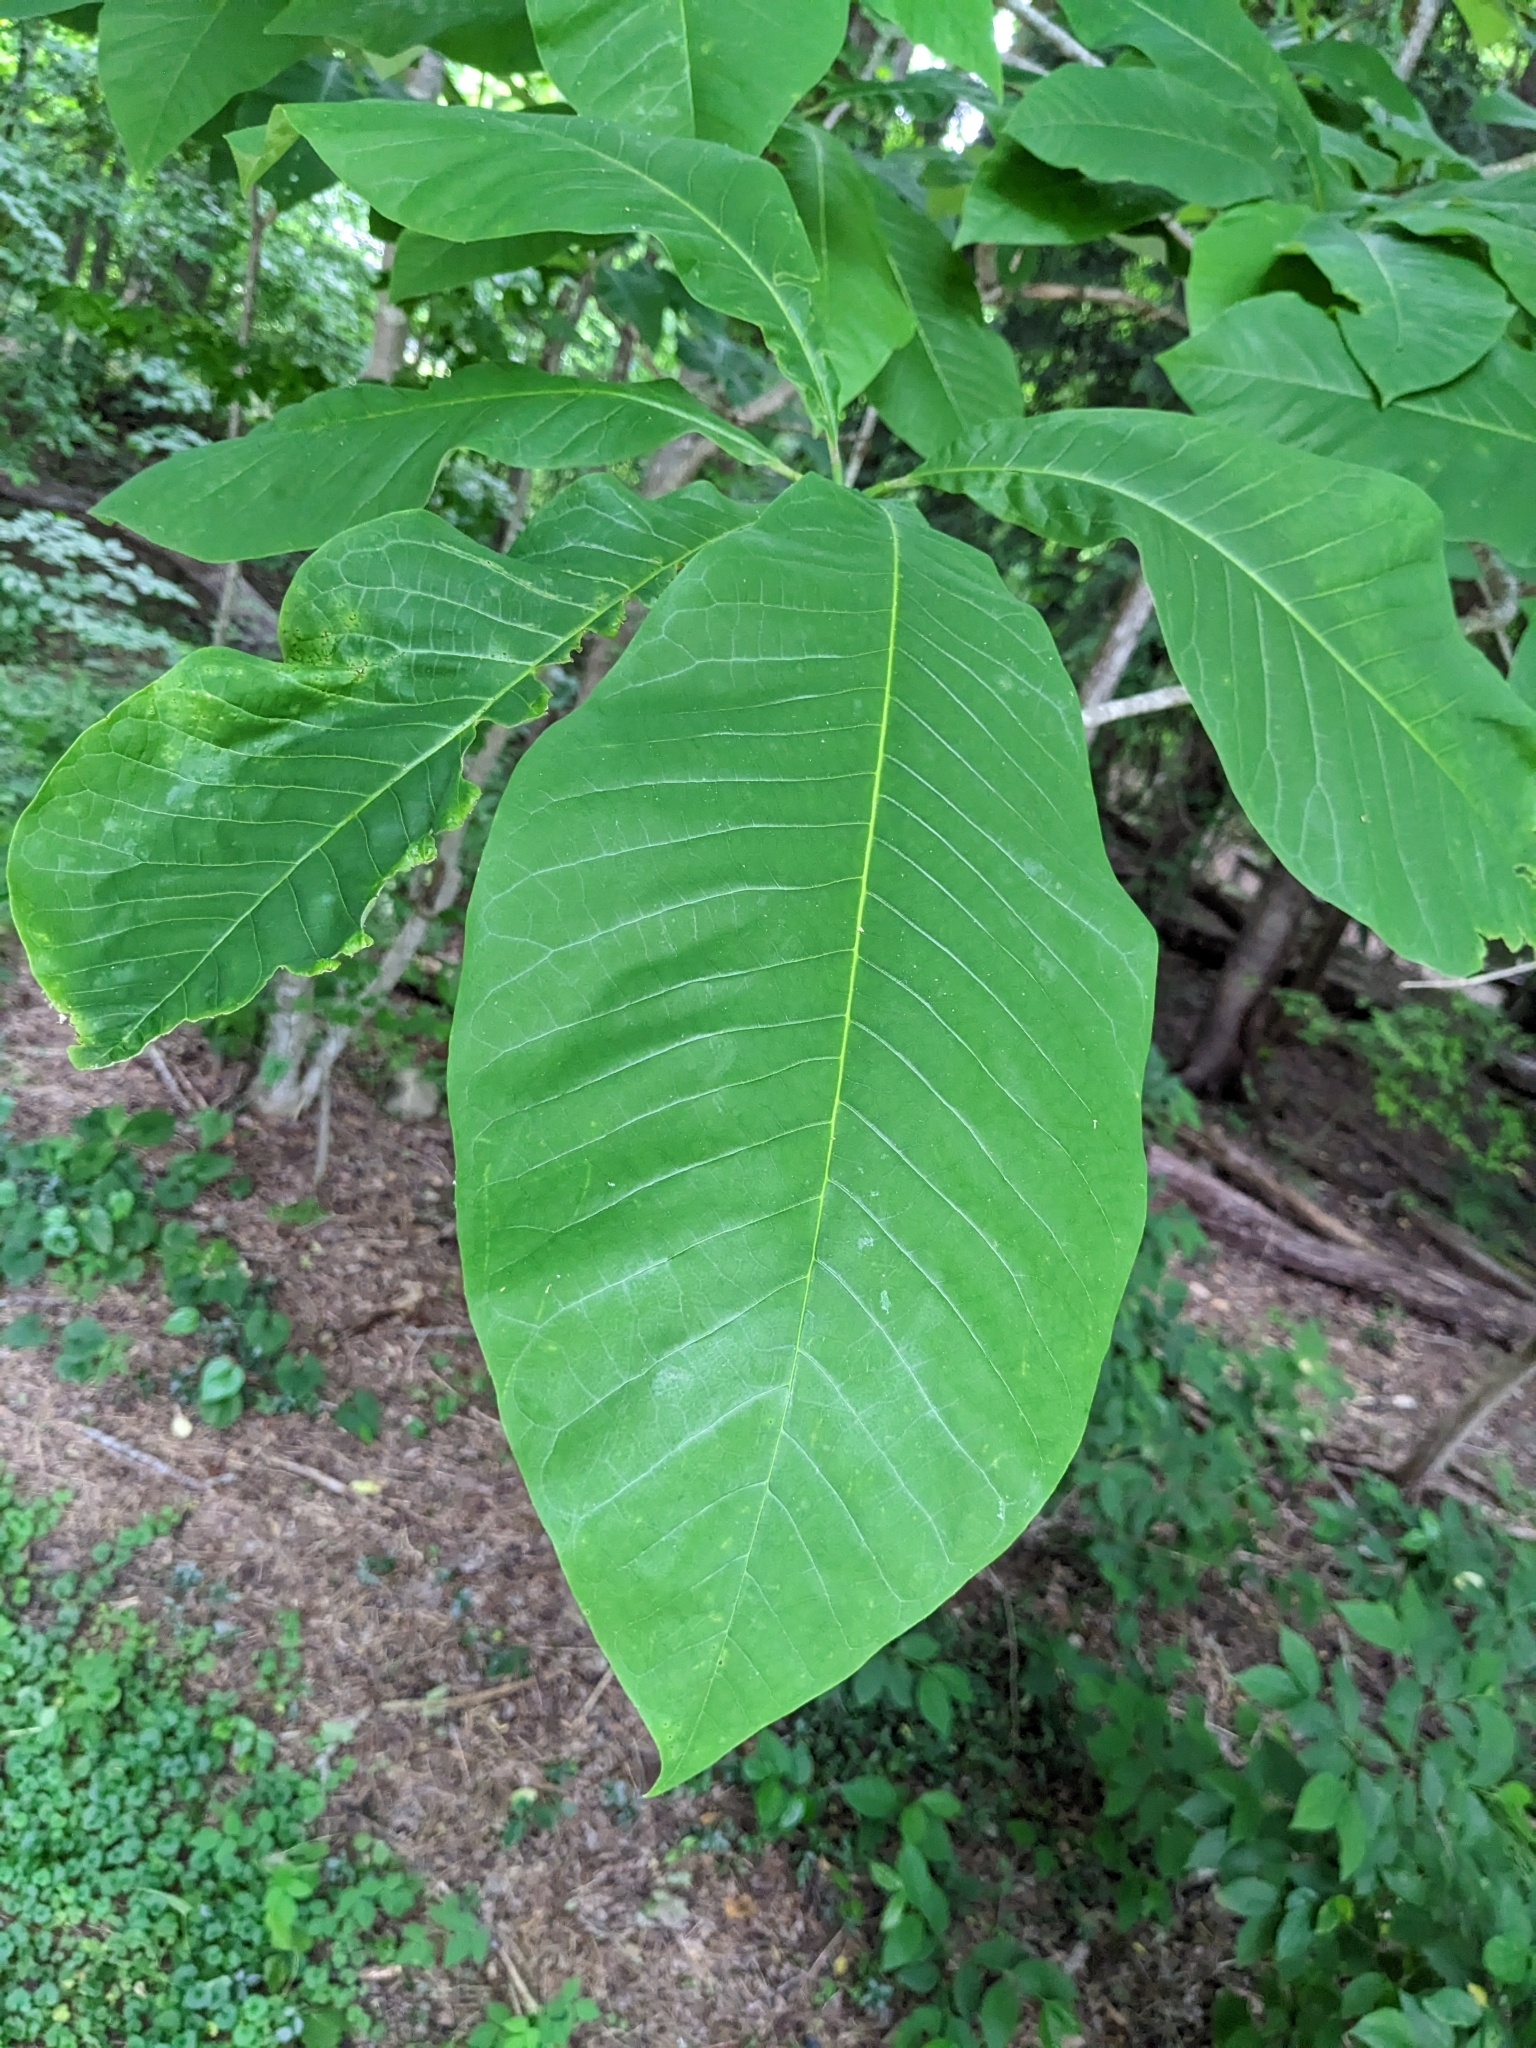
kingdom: Plantae
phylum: Tracheophyta
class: Magnoliopsida
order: Magnoliales
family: Magnoliaceae
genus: Magnolia
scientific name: Magnolia tripetala
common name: Umbrella magnolia
